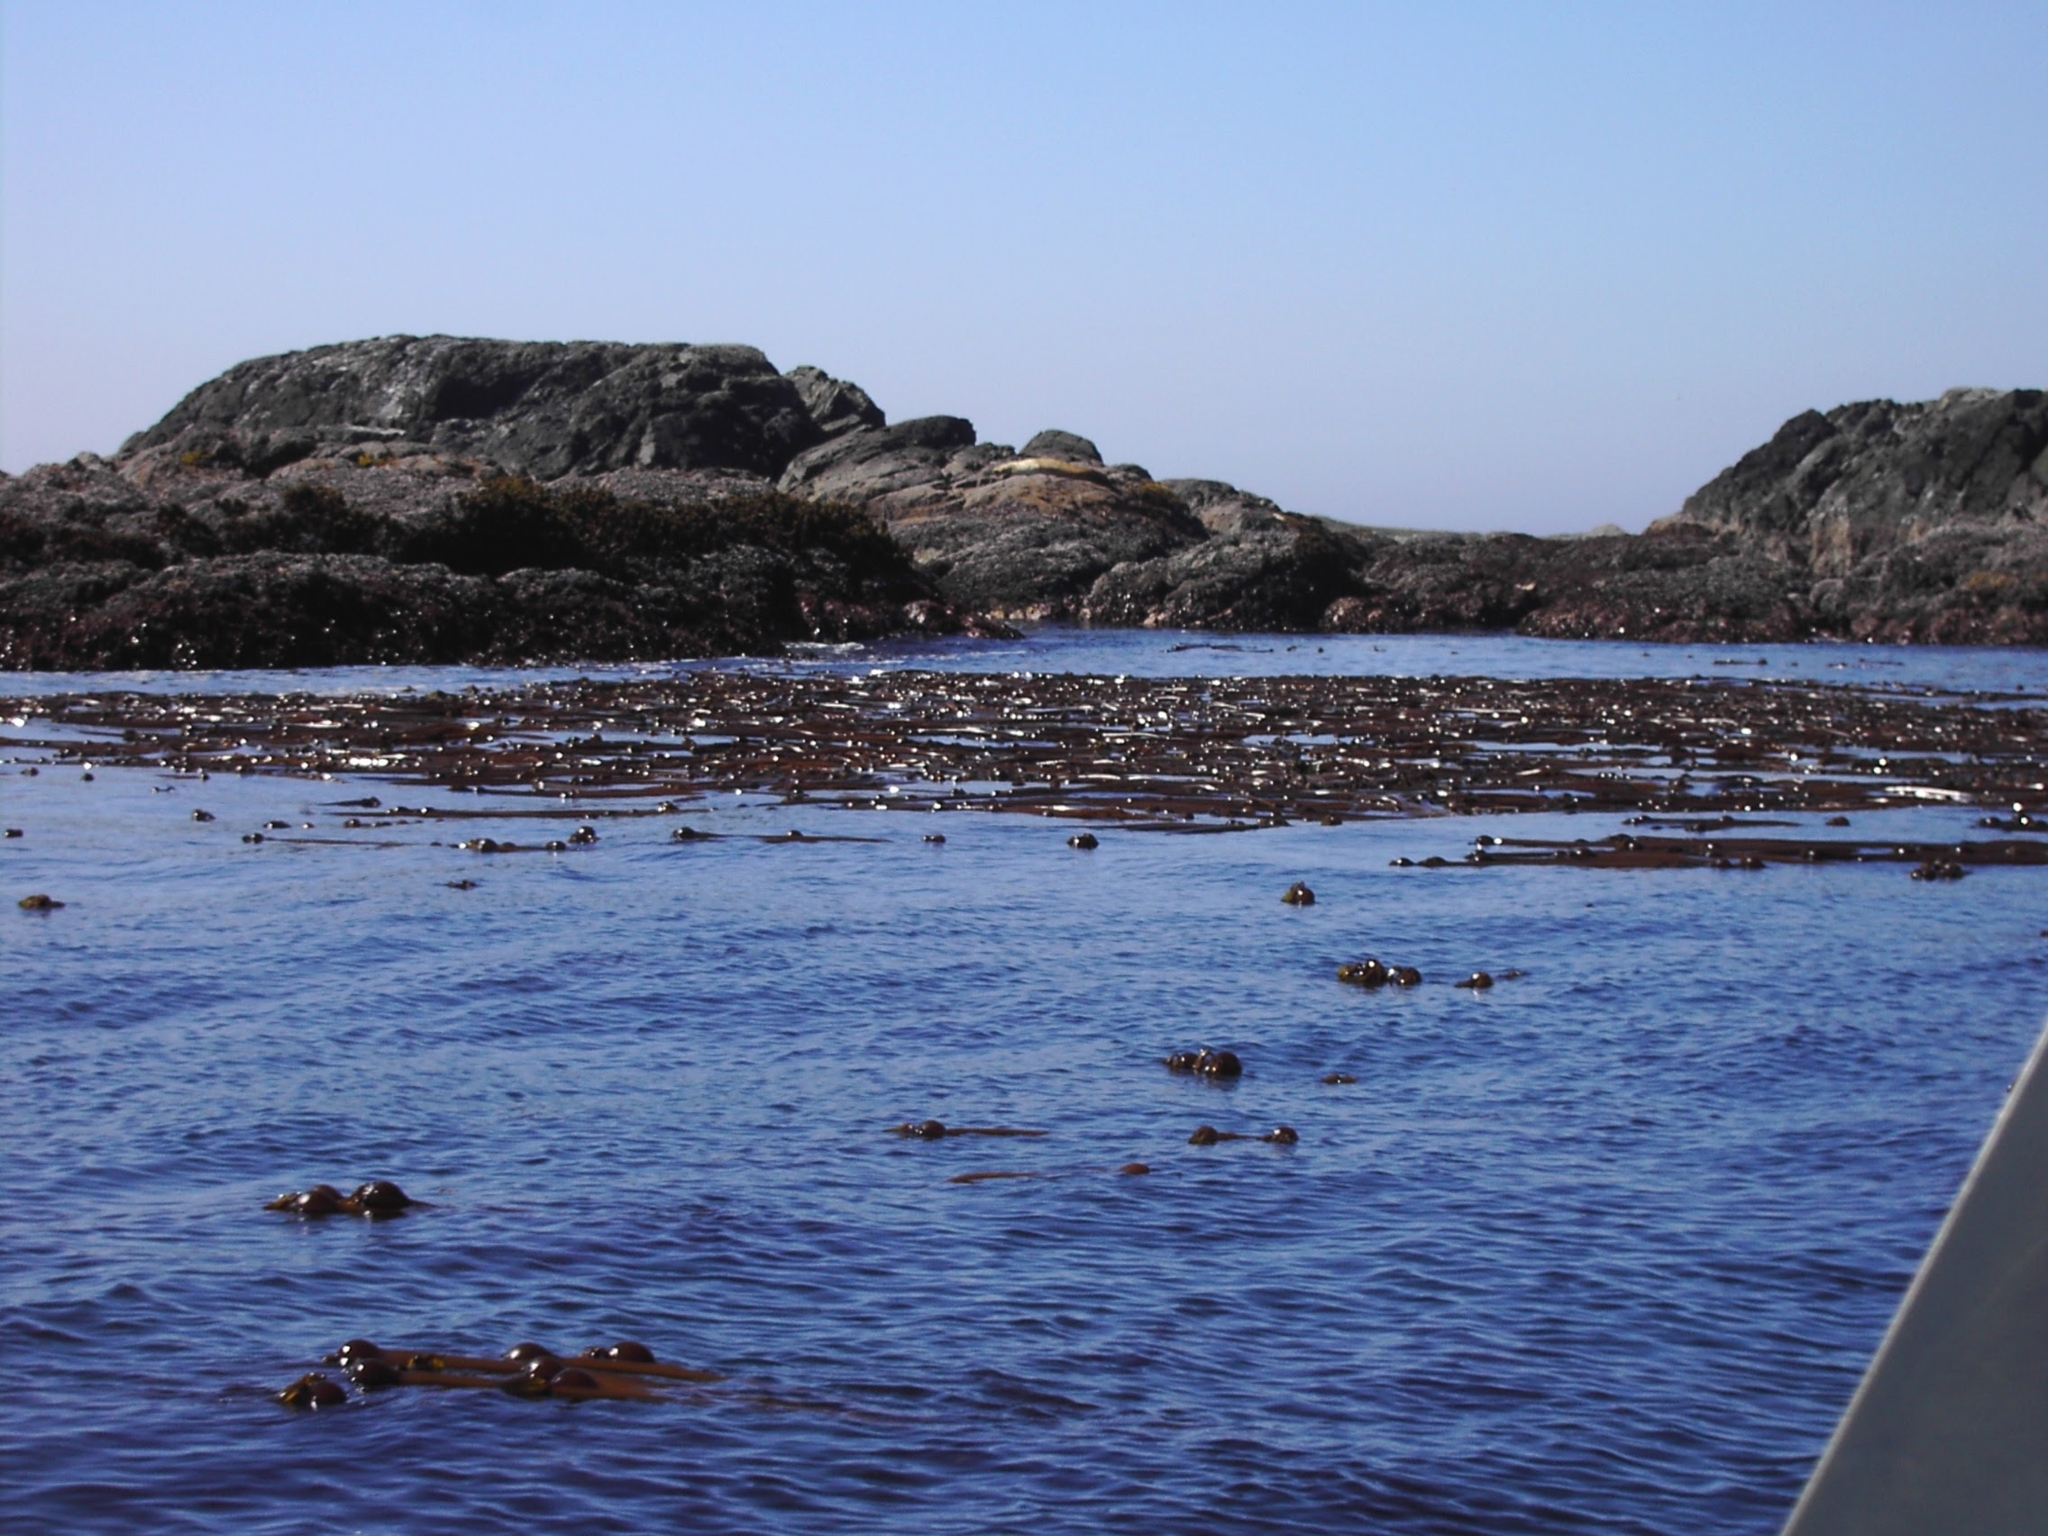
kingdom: Animalia
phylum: Chordata
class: Mammalia
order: Carnivora
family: Otariidae
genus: Eumetopias
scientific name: Eumetopias jubatus
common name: Steller sea lion
